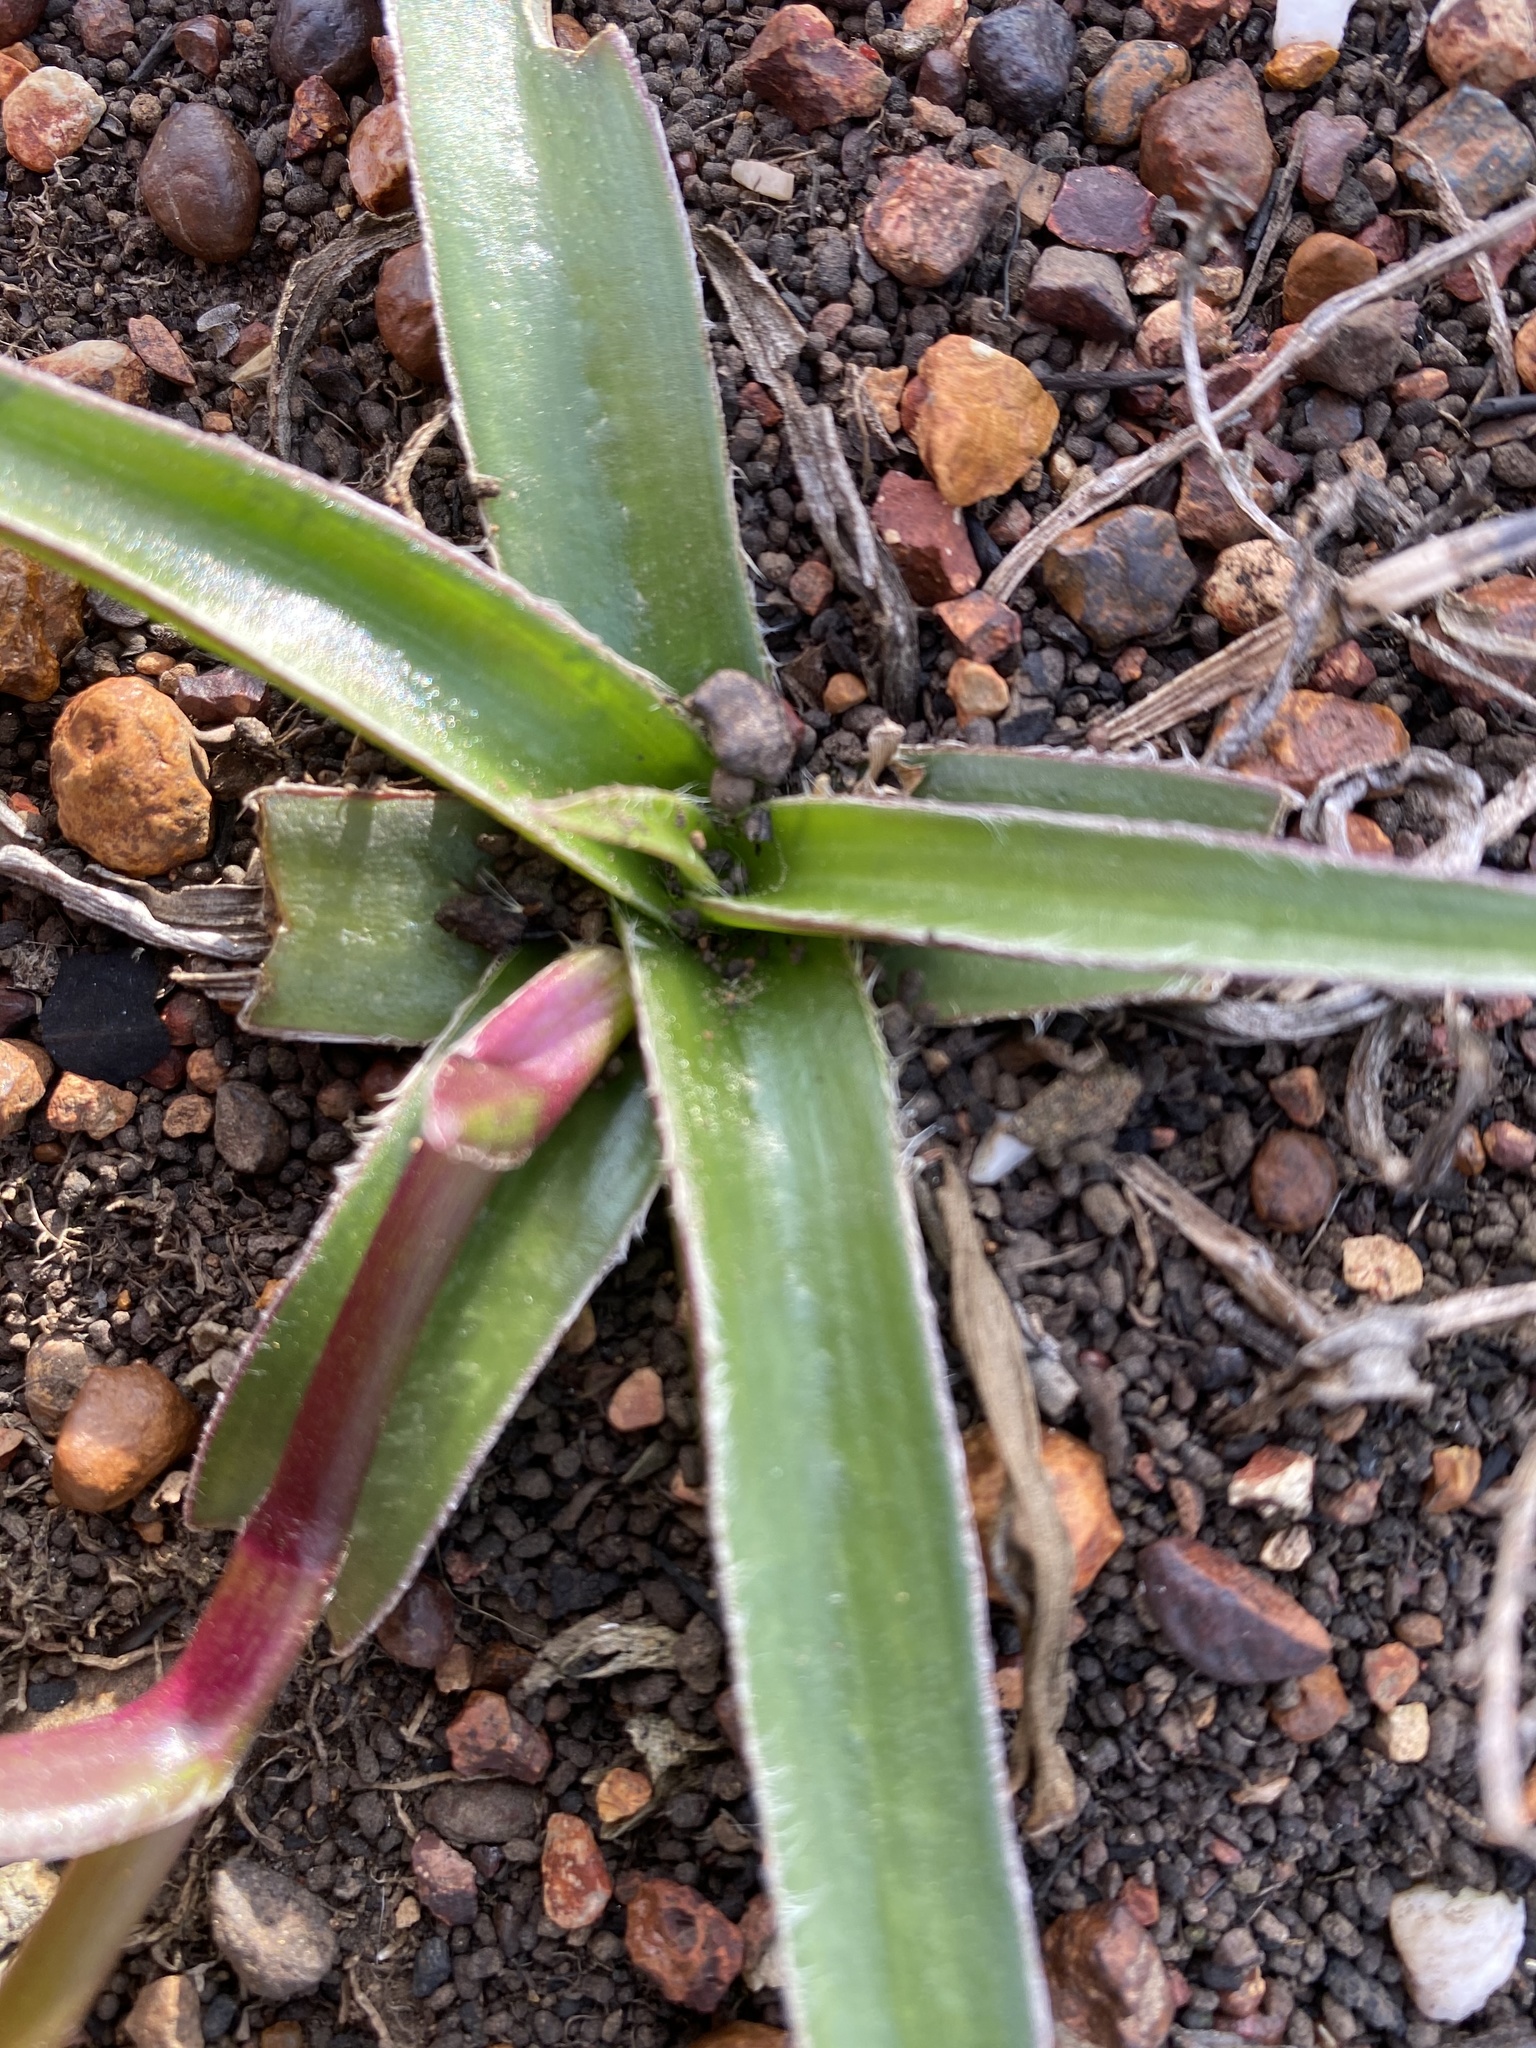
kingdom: Plantae
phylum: Tracheophyta
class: Liliopsida
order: Commelinales
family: Commelinaceae
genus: Cyanotis
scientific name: Cyanotis speciosa
